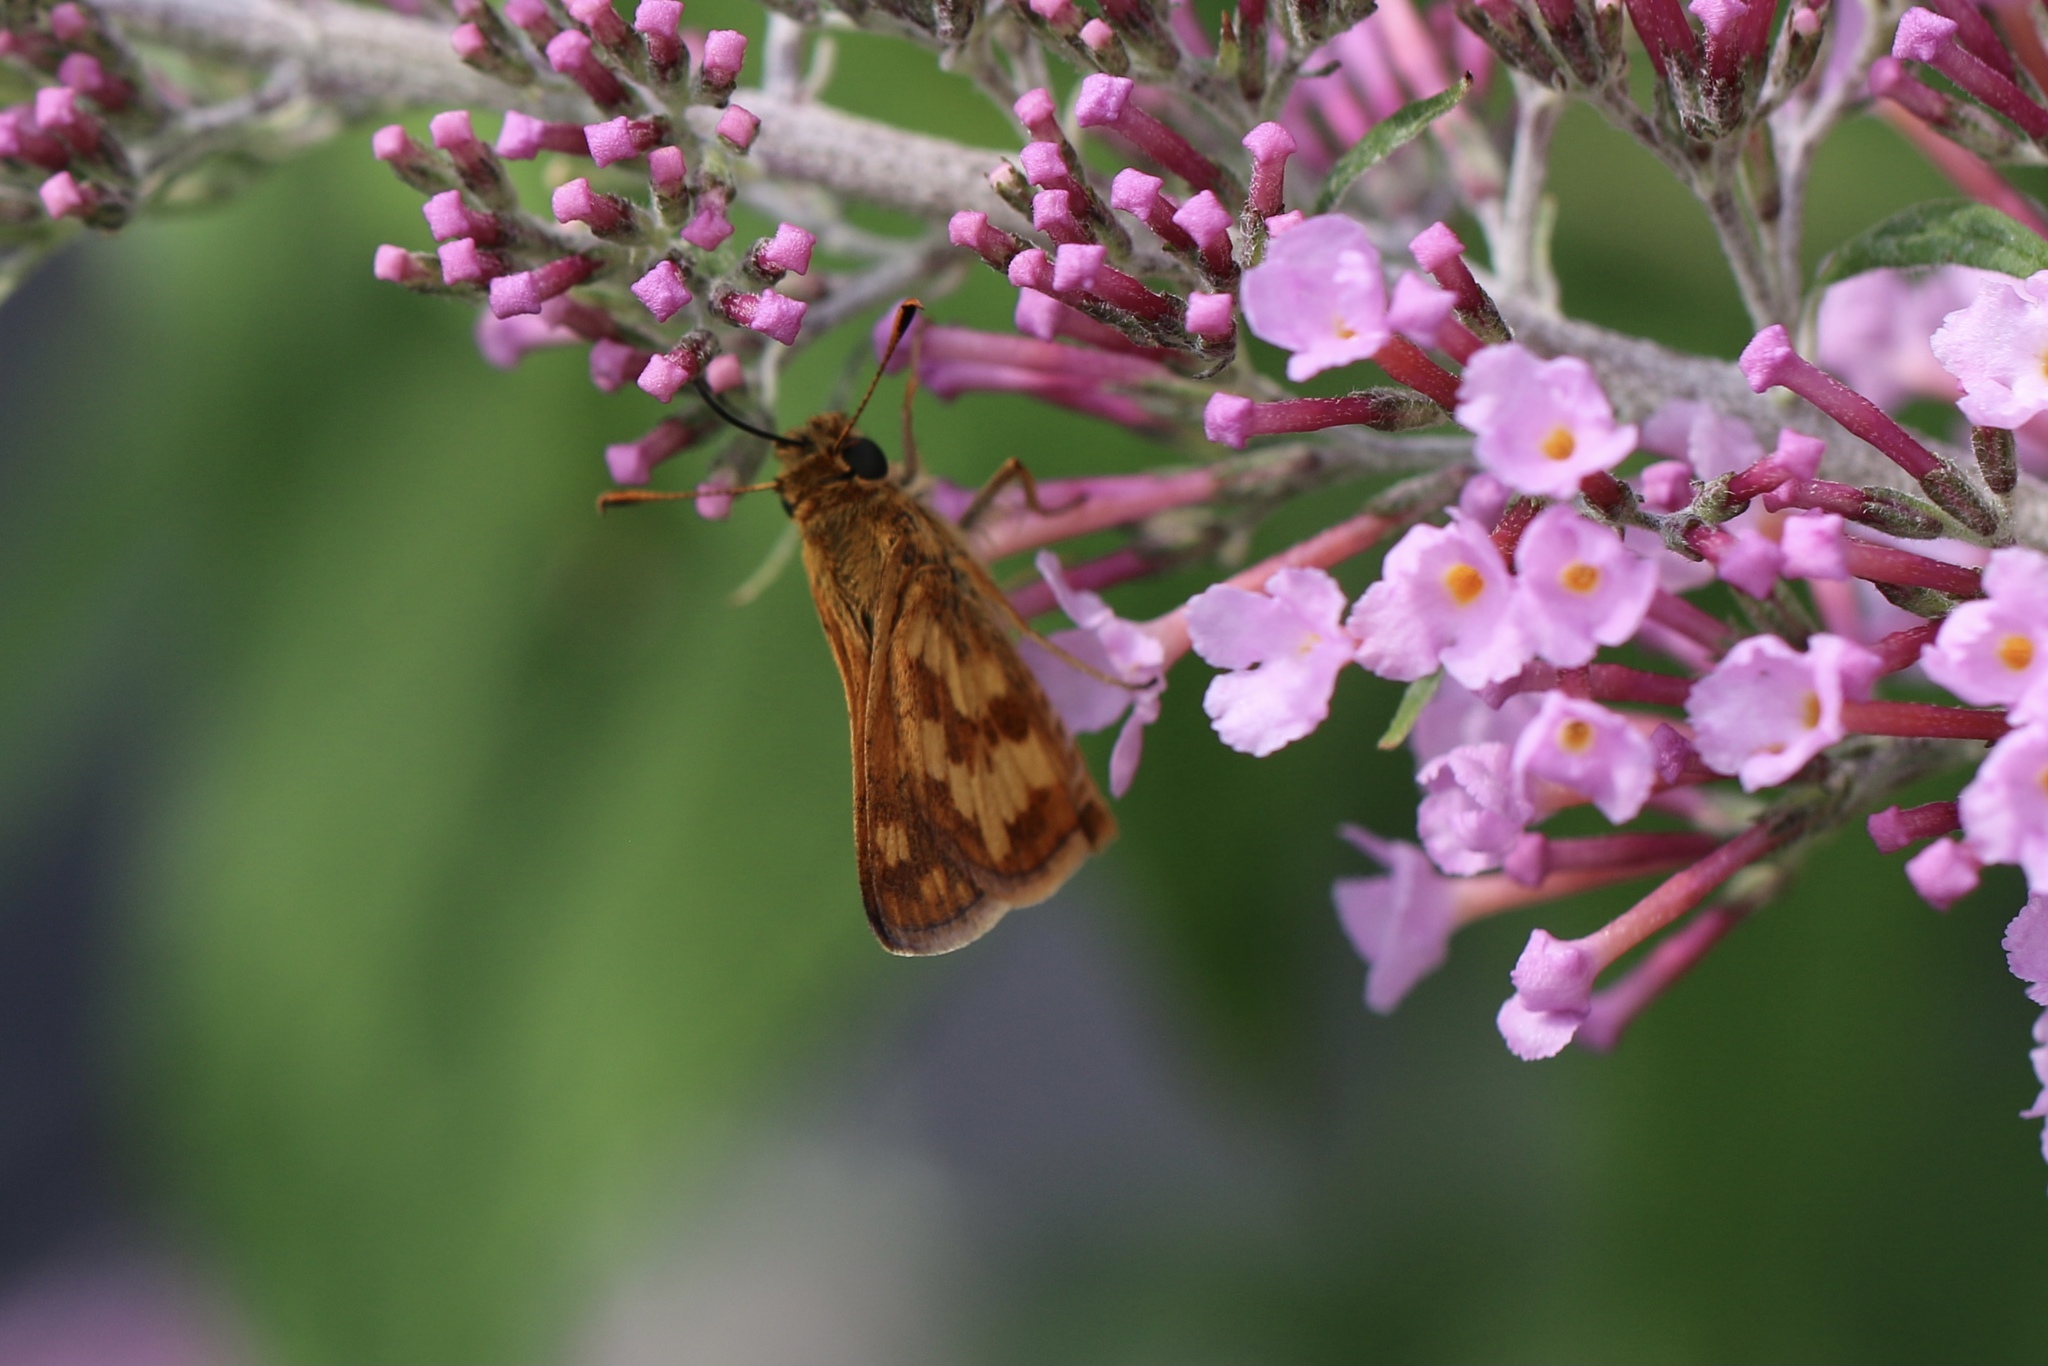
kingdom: Animalia
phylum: Arthropoda
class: Insecta
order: Lepidoptera
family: Hesperiidae
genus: Polites
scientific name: Polites coras
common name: Peck's skipper
